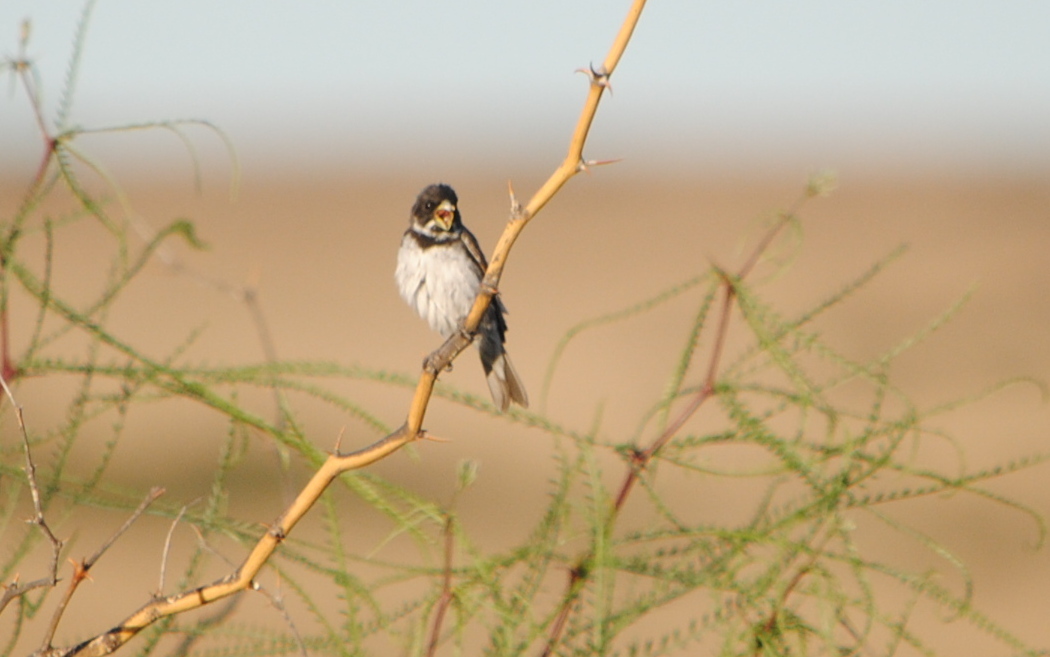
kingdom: Animalia
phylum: Chordata
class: Aves
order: Passeriformes
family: Thraupidae
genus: Sporophila
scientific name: Sporophila caerulescens
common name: Double-collared seedeater
